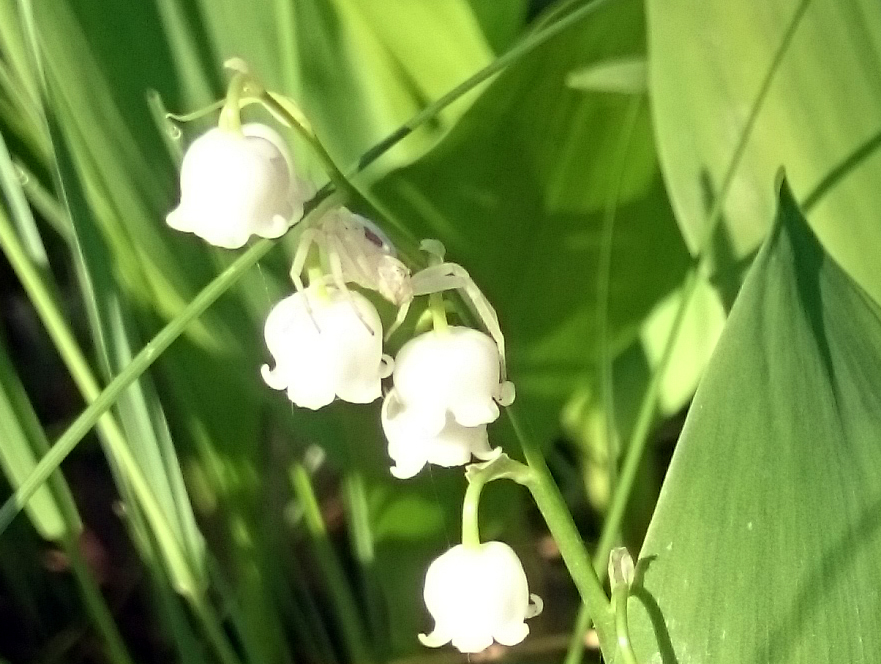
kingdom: Animalia
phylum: Arthropoda
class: Arachnida
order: Araneae
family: Thomisidae
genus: Misumena
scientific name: Misumena vatia
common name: Goldenrod crab spider
